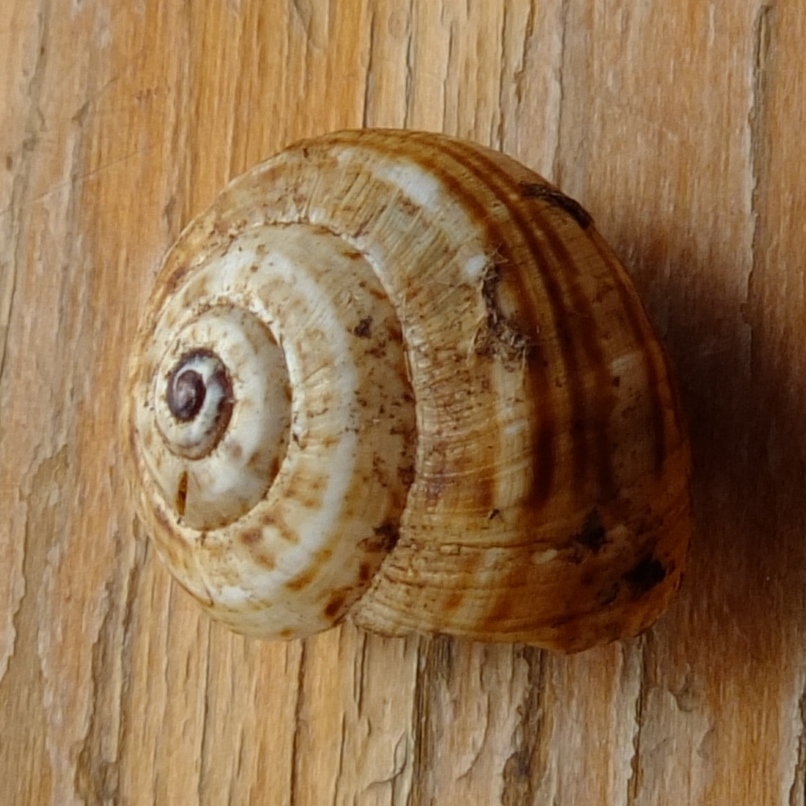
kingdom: Animalia
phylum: Mollusca
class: Gastropoda
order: Stylommatophora
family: Helicidae
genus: Theba
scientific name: Theba pisana
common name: White snail
